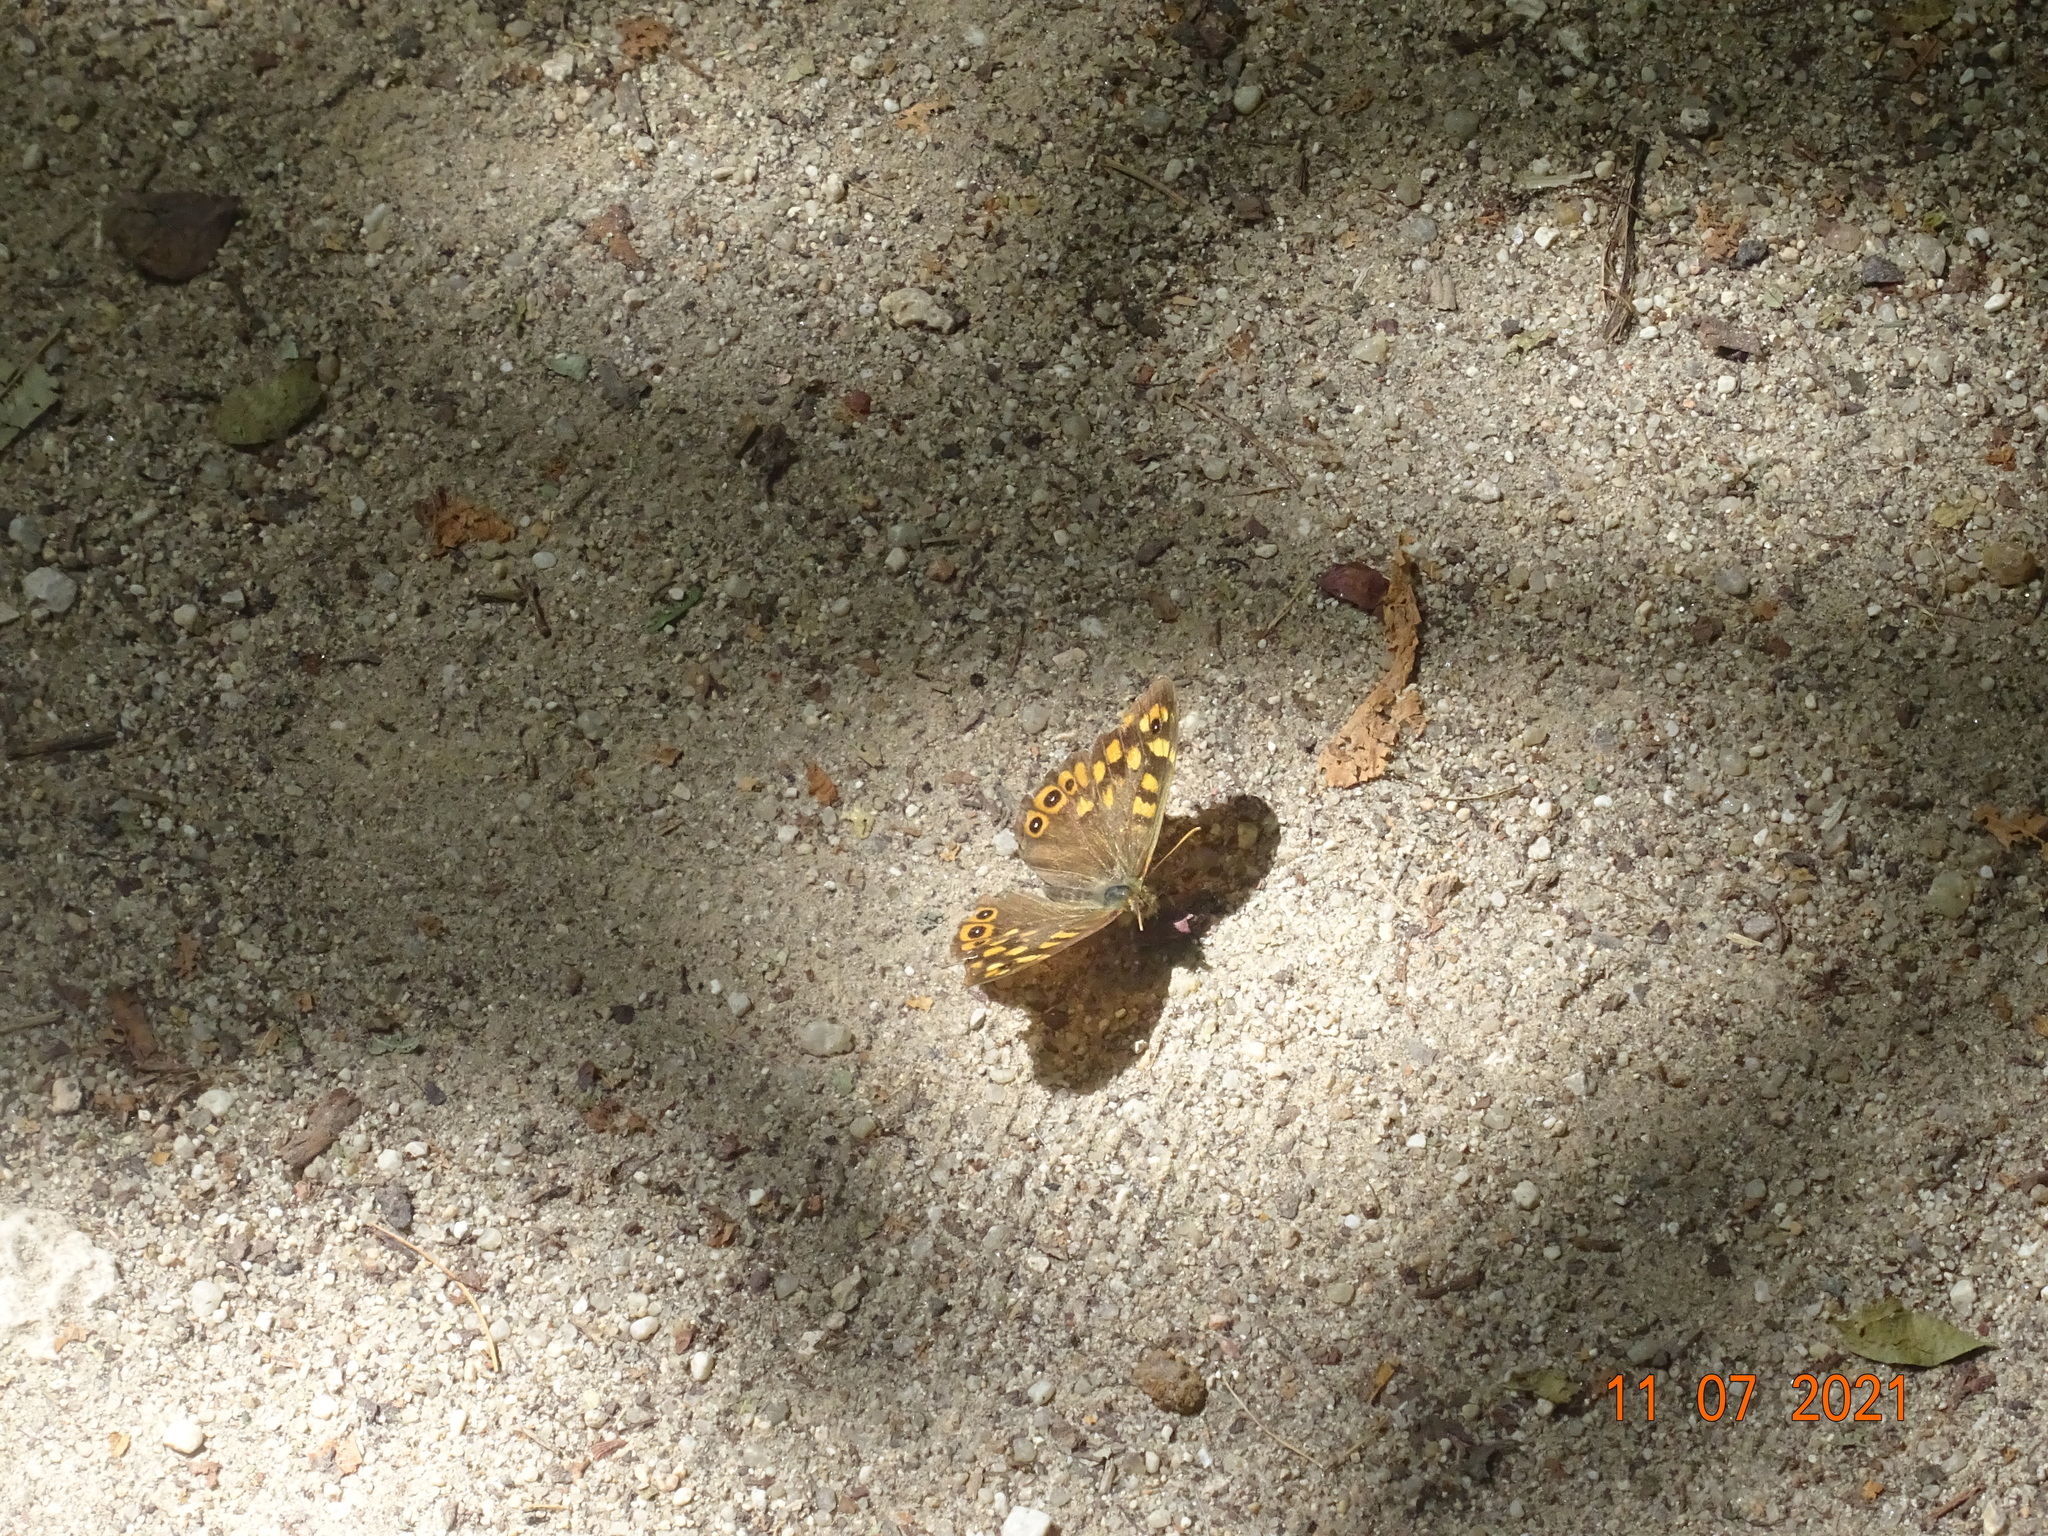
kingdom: Animalia
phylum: Arthropoda
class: Insecta
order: Lepidoptera
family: Nymphalidae
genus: Pararge
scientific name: Pararge aegeria
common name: Speckled wood
